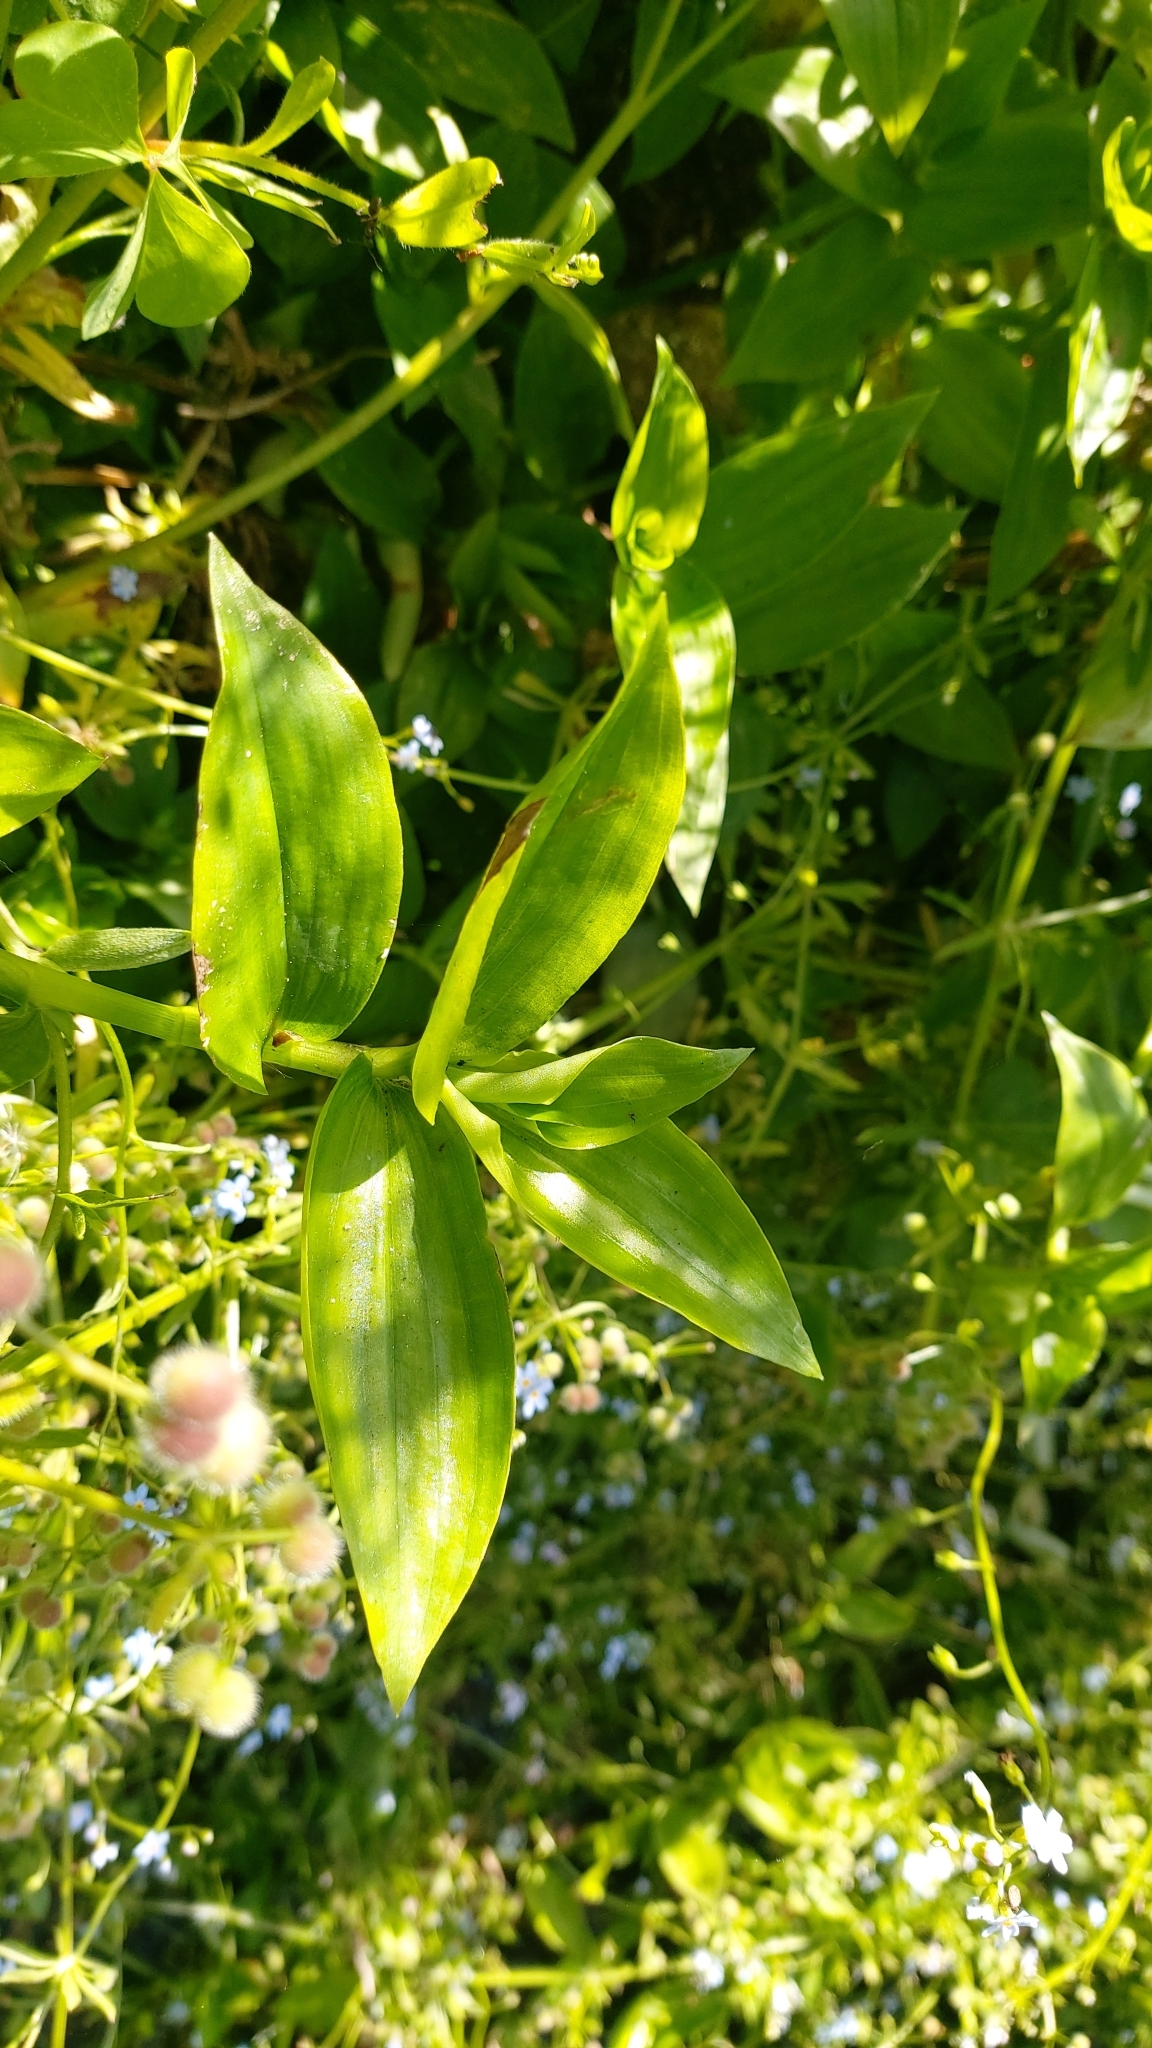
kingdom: Plantae
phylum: Tracheophyta
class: Liliopsida
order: Commelinales
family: Commelinaceae
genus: Tradescantia
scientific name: Tradescantia fluminensis
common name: Wandering-jew
